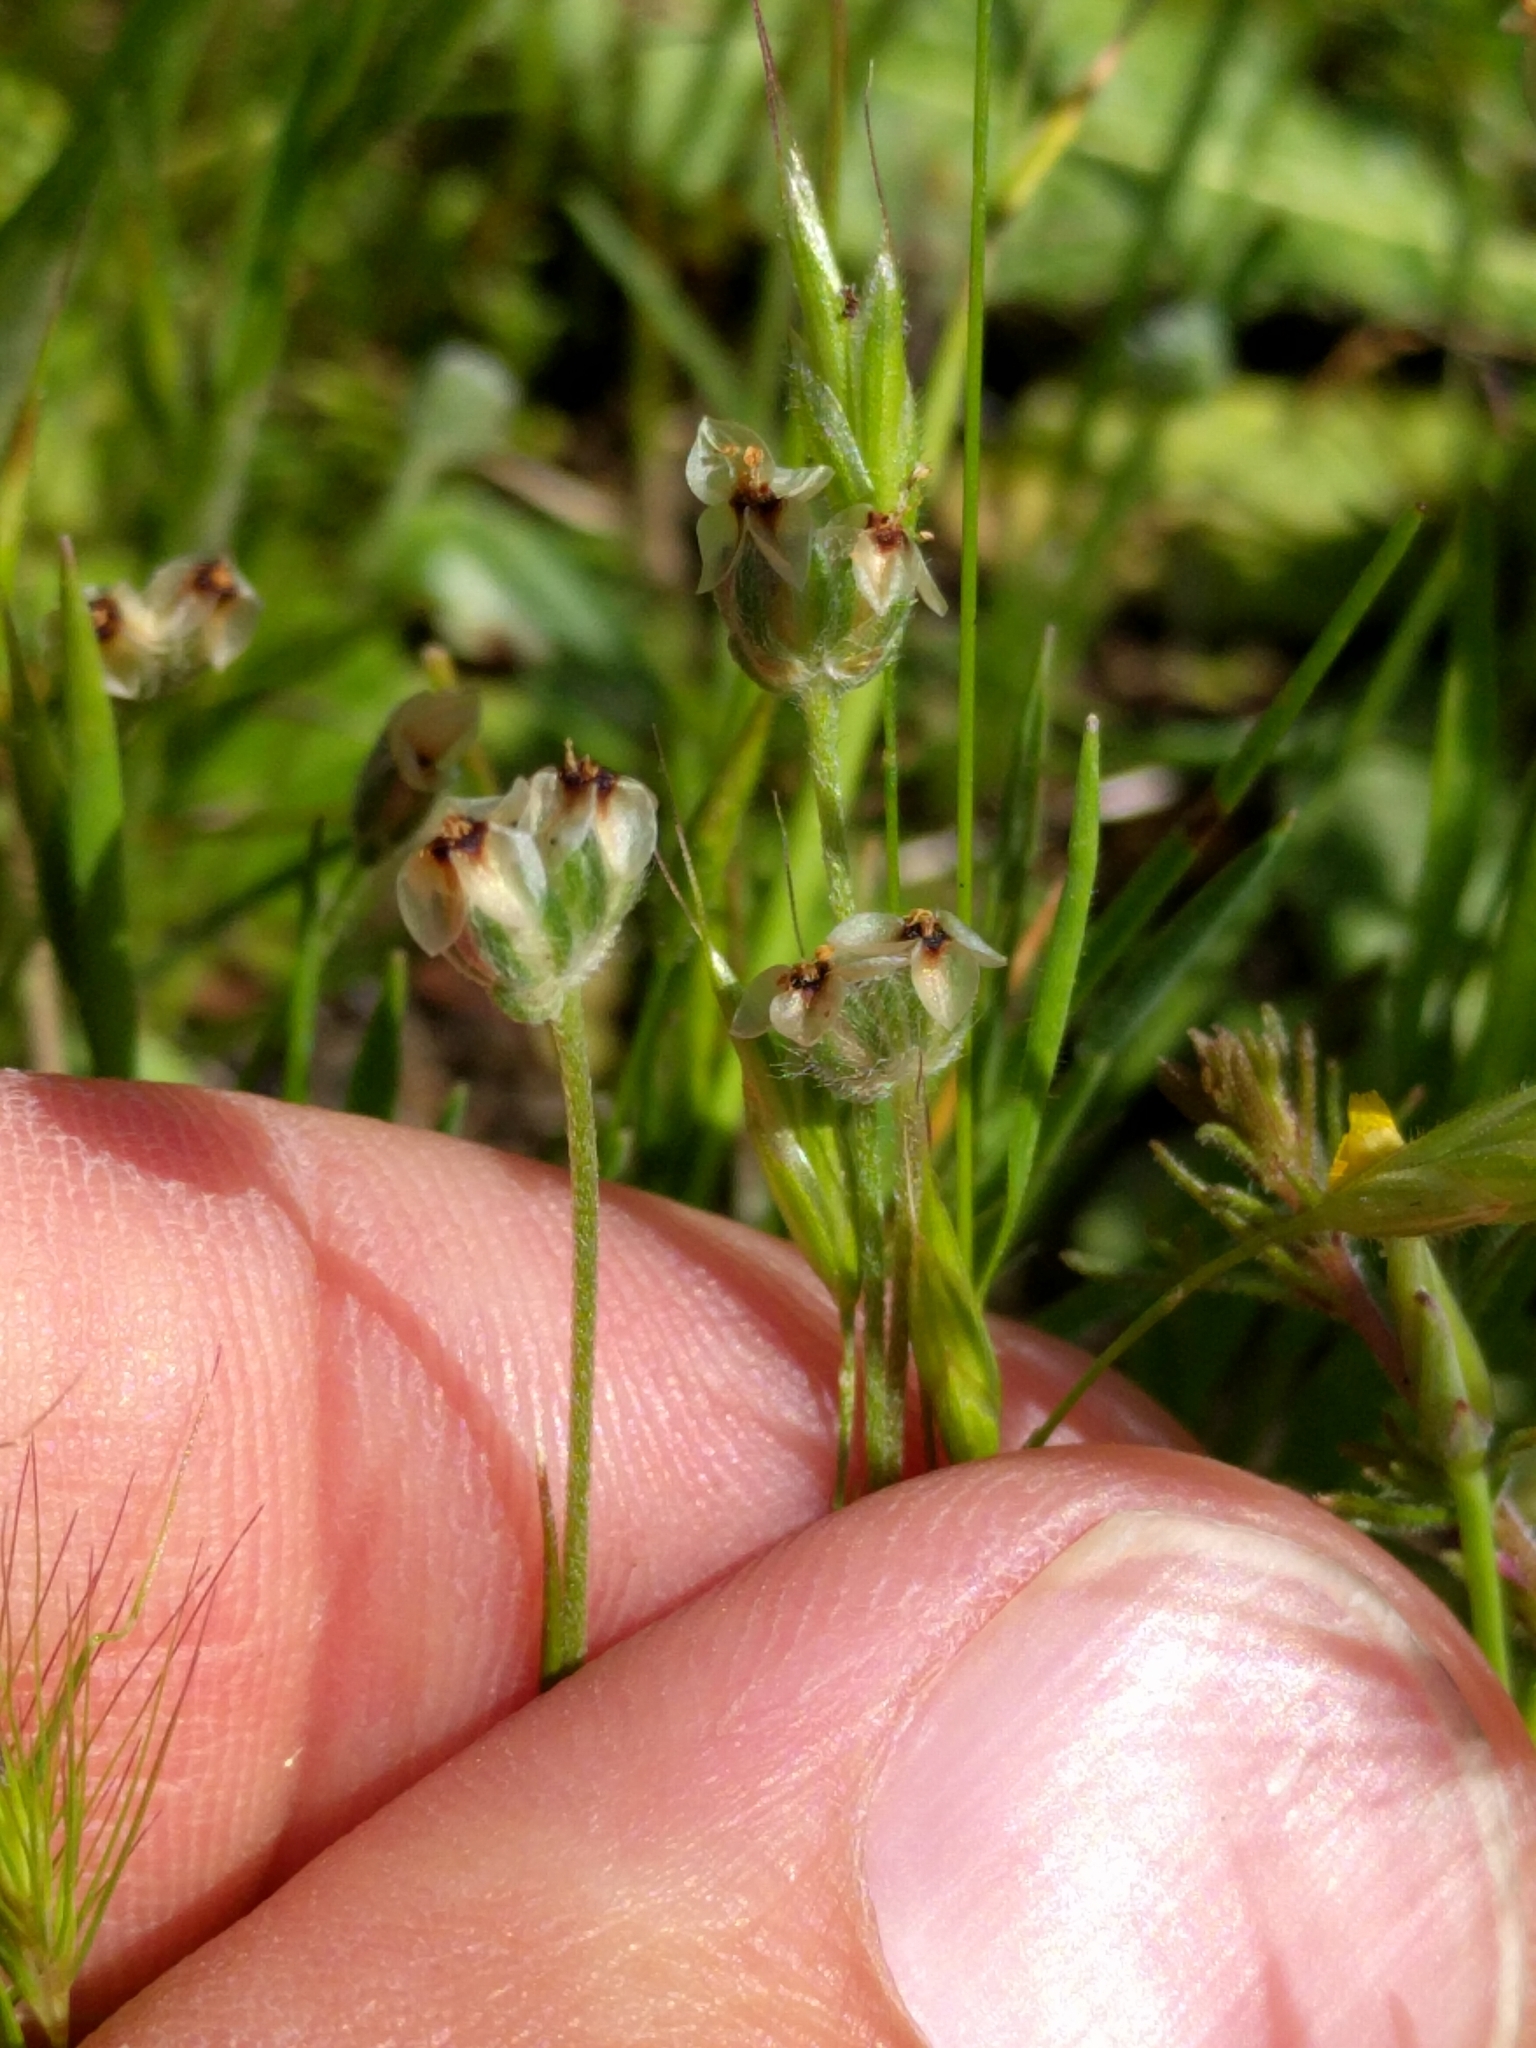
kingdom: Plantae
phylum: Tracheophyta
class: Magnoliopsida
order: Lamiales
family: Plantaginaceae
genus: Plantago
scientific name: Plantago erecta
